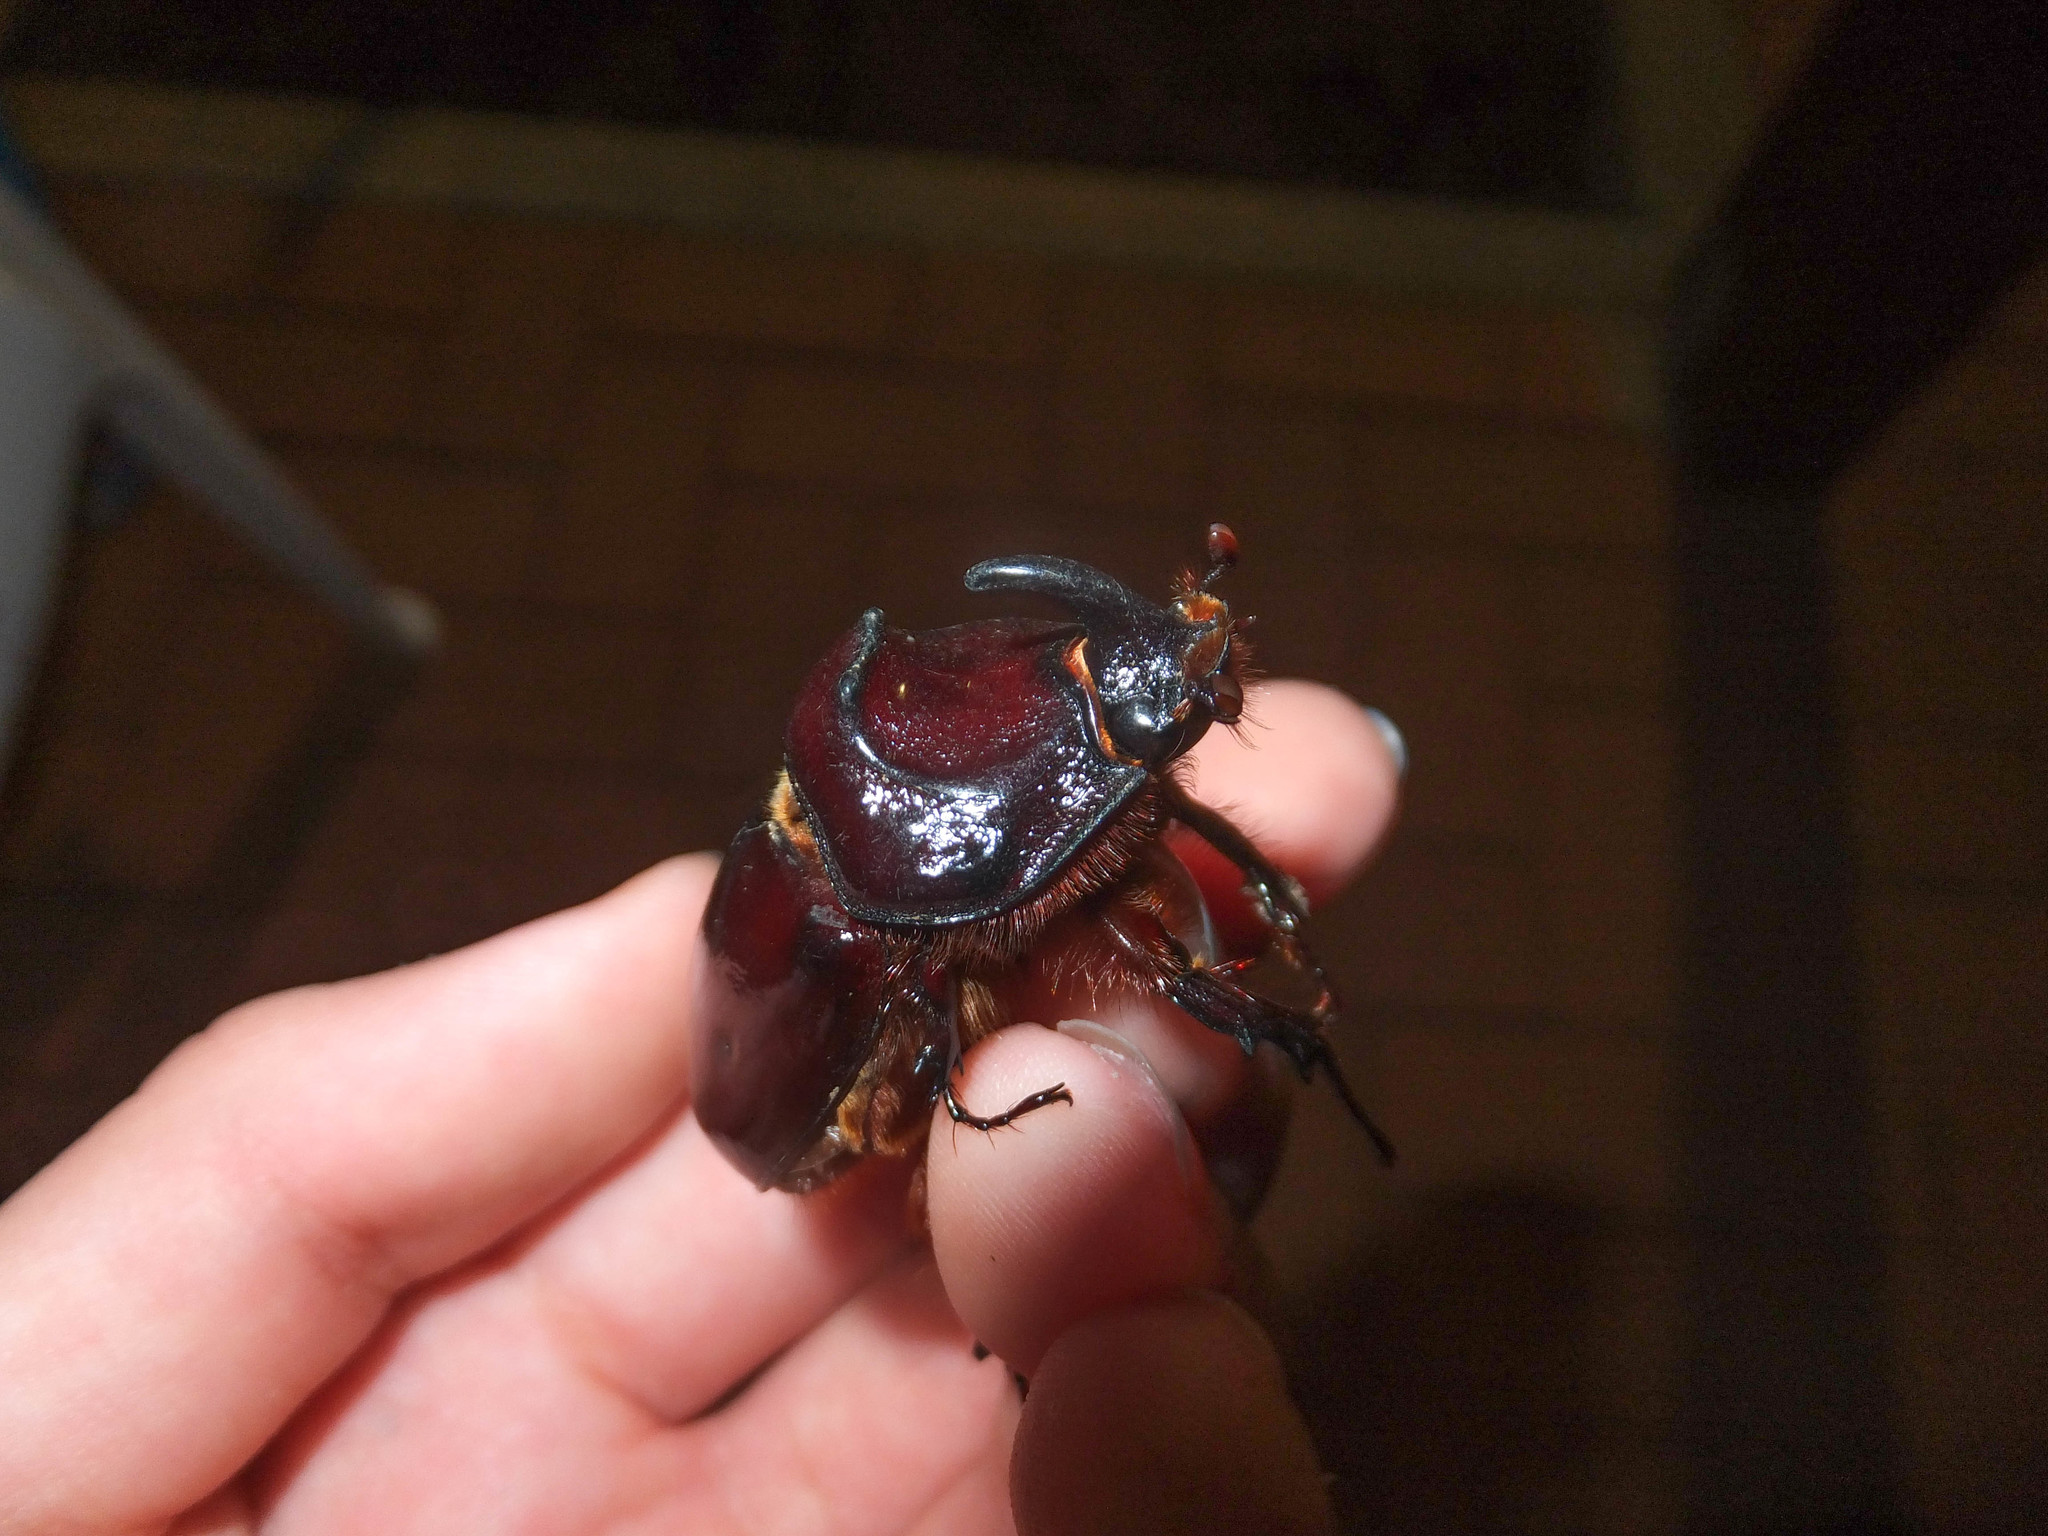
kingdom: Animalia
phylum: Arthropoda
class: Insecta
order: Coleoptera
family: Scarabaeidae
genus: Oryctes
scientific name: Oryctes nasicornis
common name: European rhinoceros beetle
